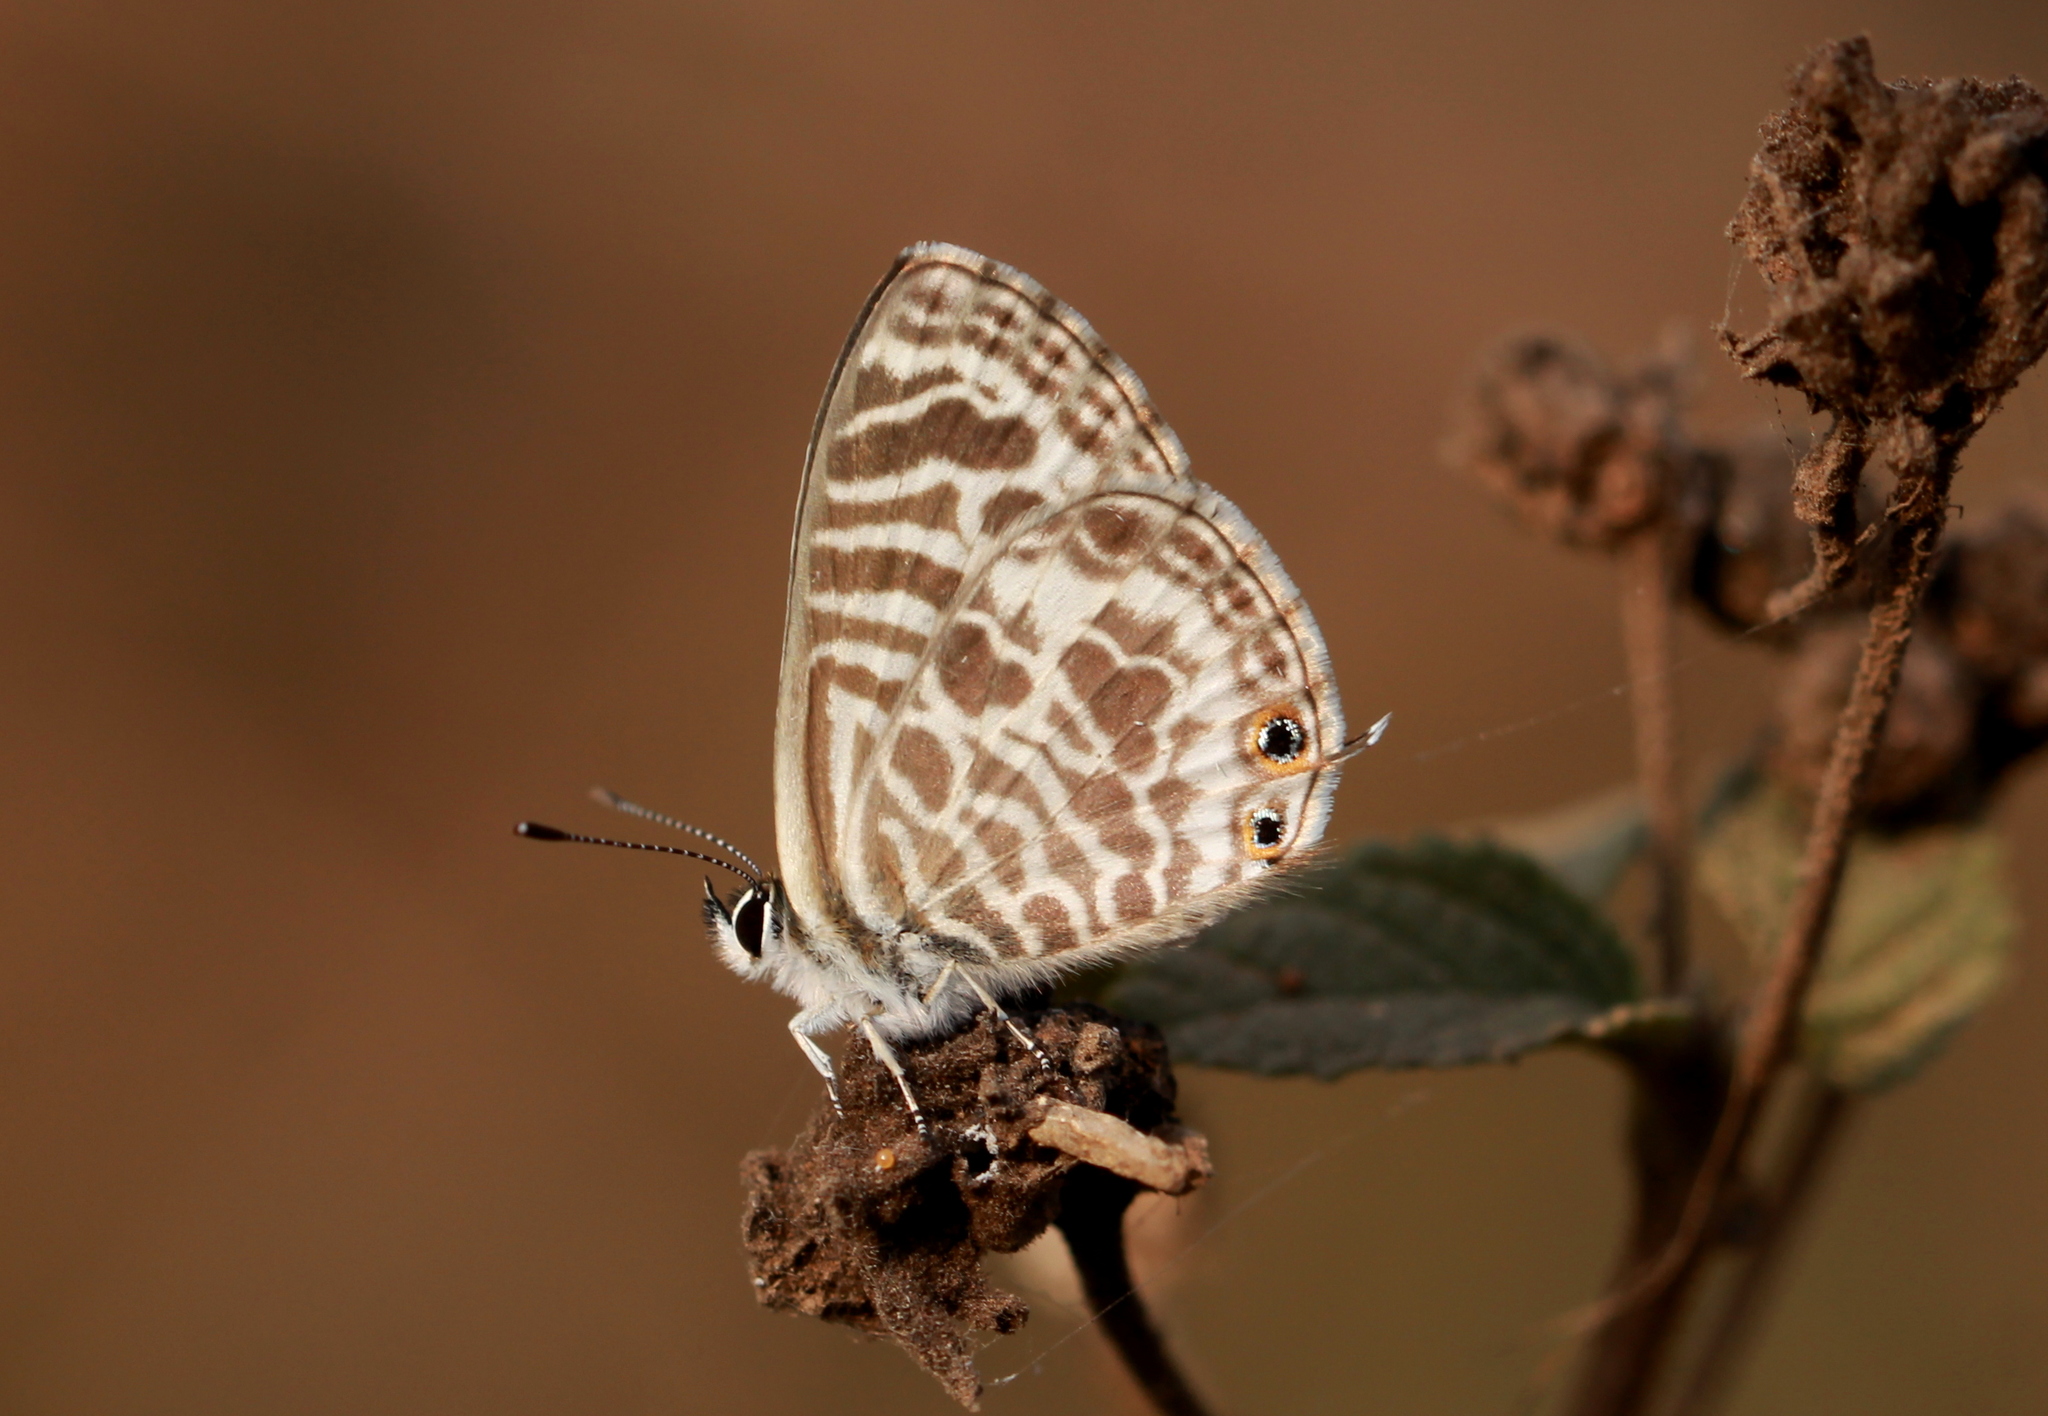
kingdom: Animalia
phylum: Arthropoda
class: Insecta
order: Lepidoptera
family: Lycaenidae
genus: Leptotes
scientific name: Leptotes plinius
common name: Zebra blue
